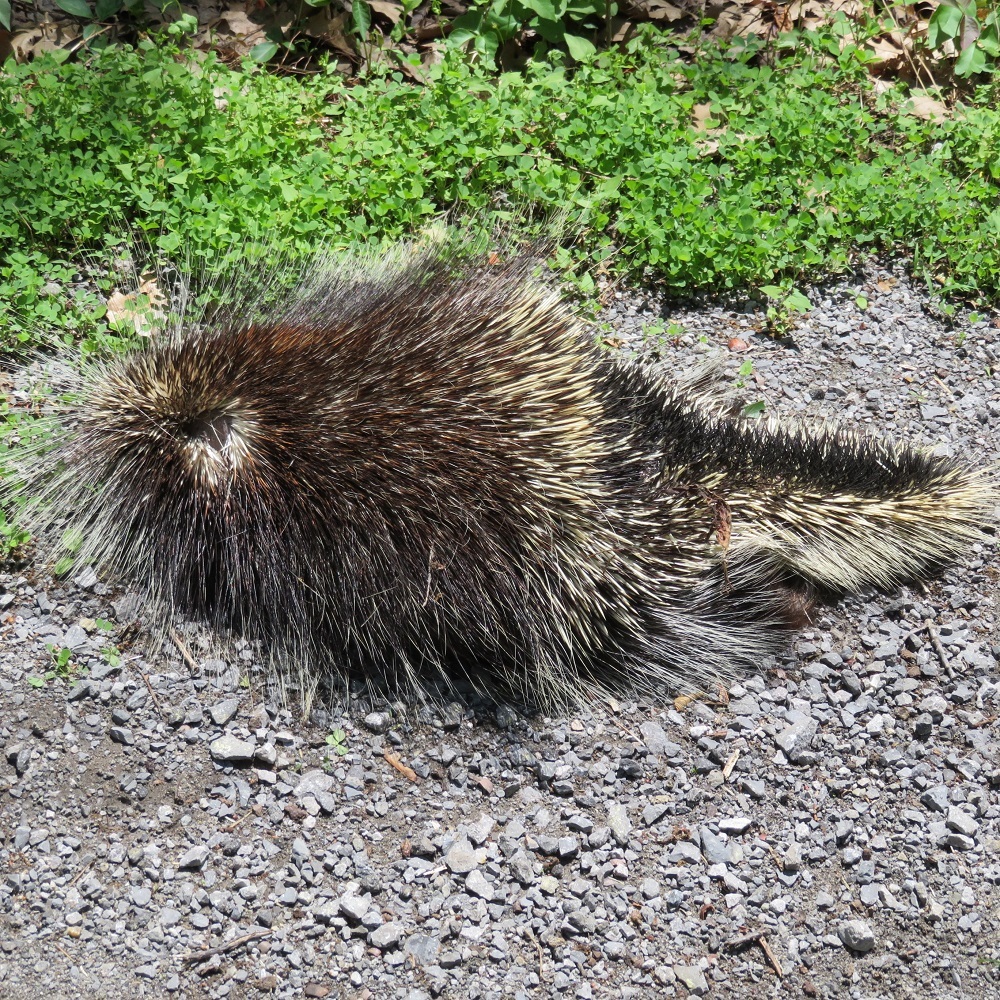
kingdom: Animalia
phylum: Chordata
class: Mammalia
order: Rodentia
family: Erethizontidae
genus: Erethizon
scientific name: Erethizon dorsatus
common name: North american porcupine
